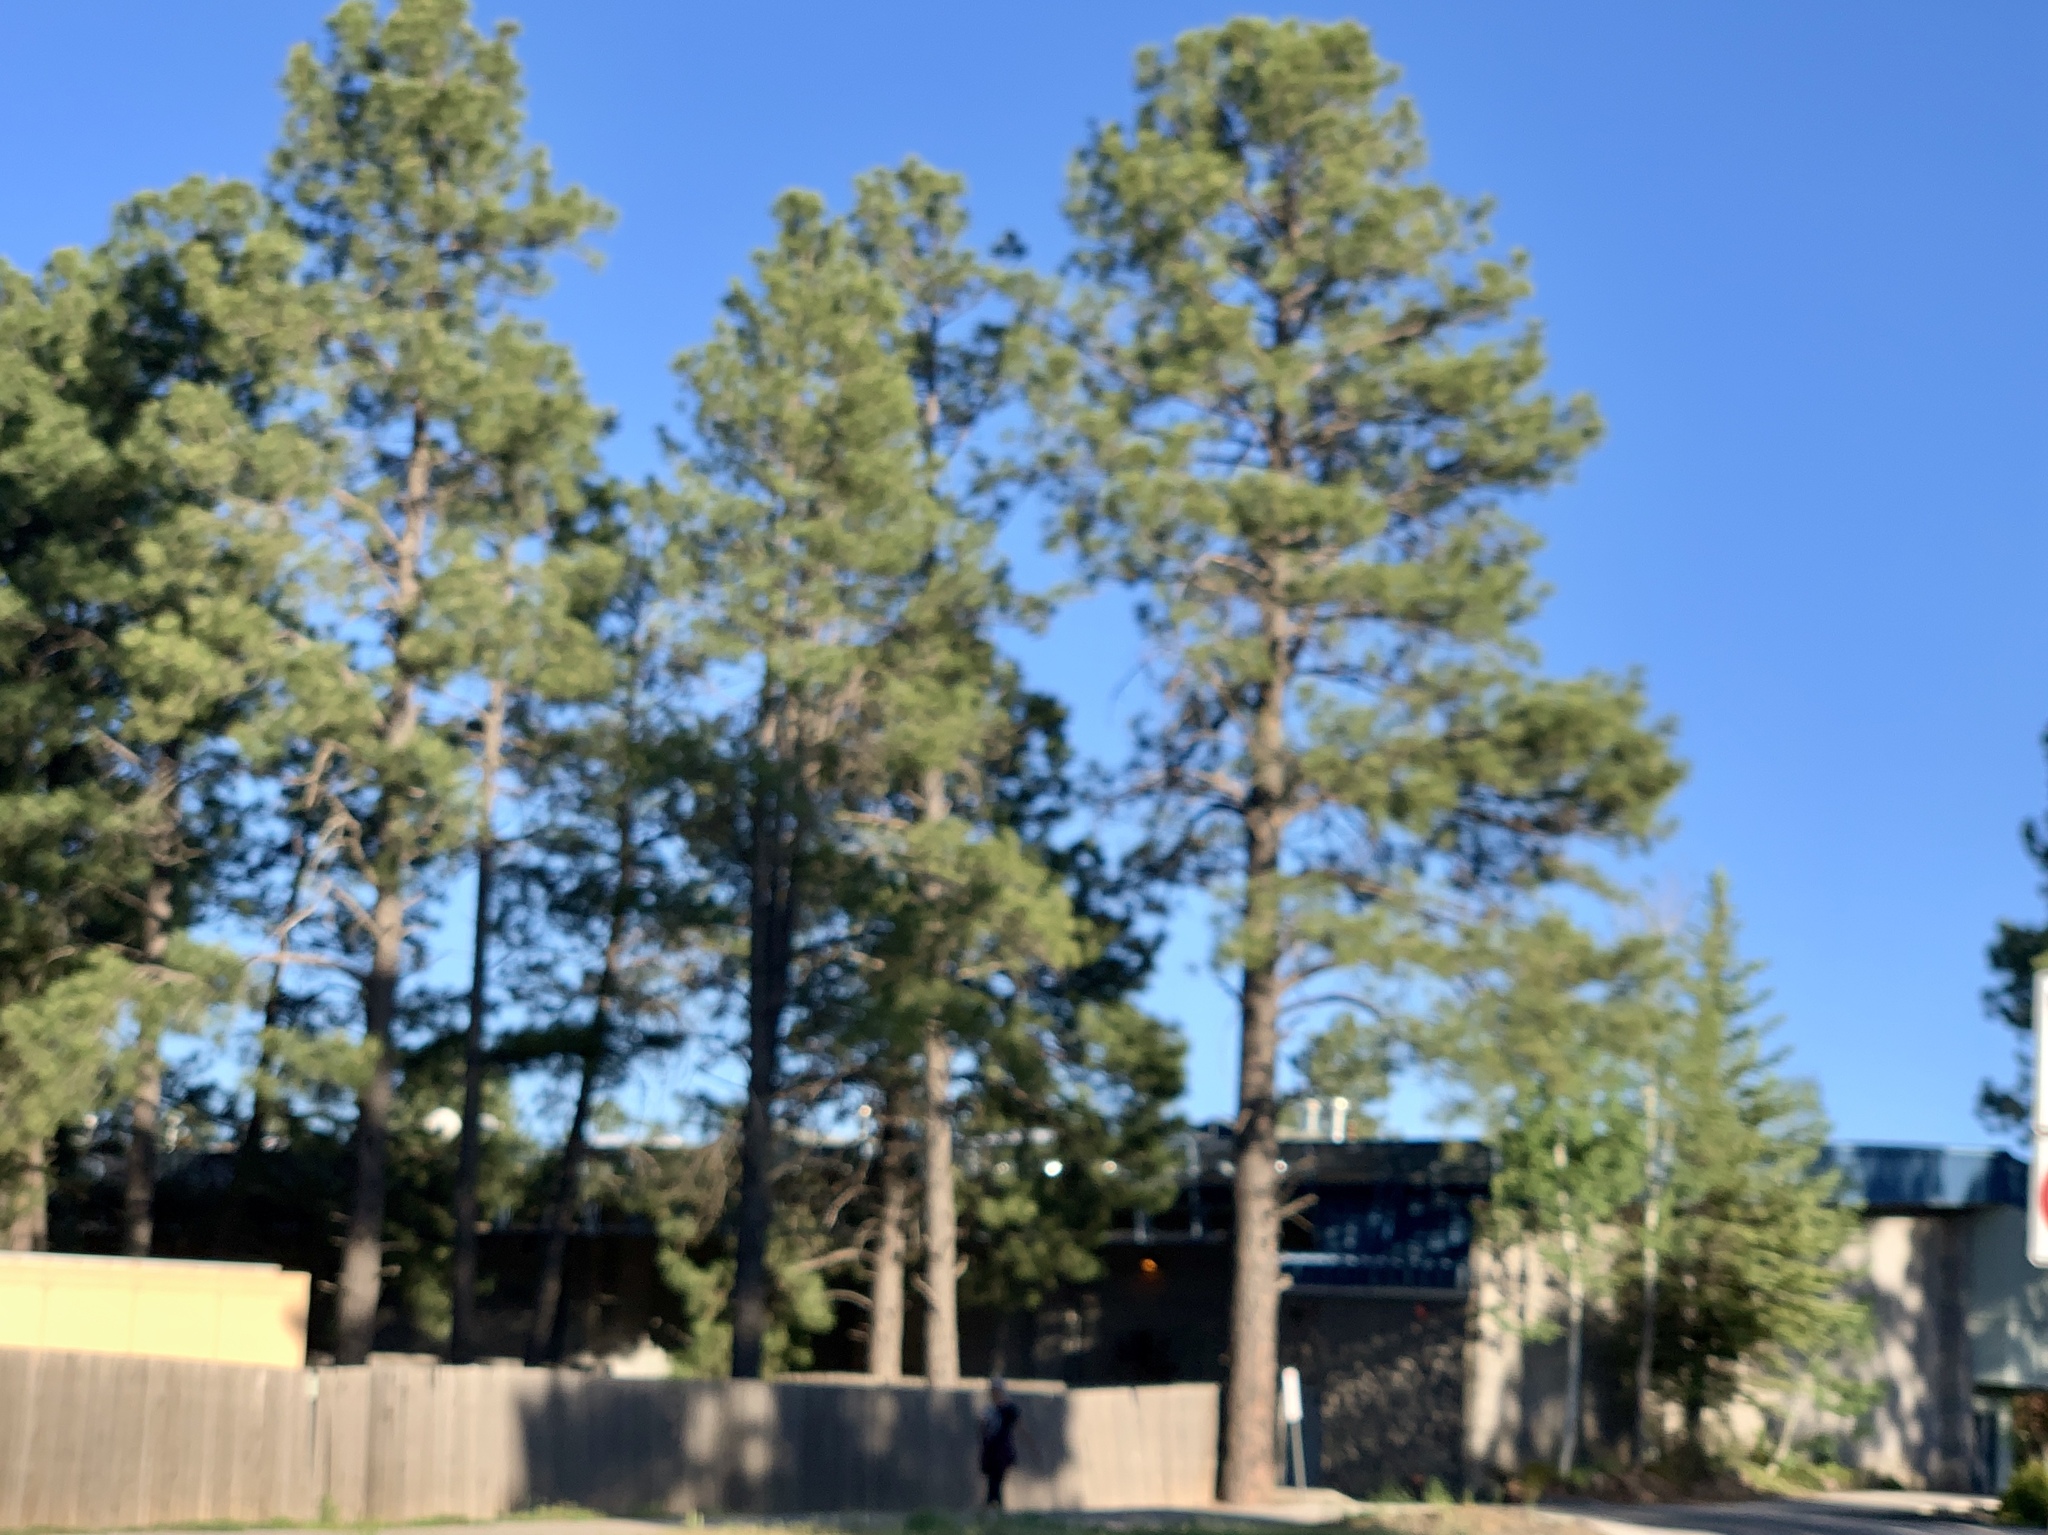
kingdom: Plantae
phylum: Tracheophyta
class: Pinopsida
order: Pinales
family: Pinaceae
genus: Pinus
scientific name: Pinus ponderosa
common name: Western yellow-pine
